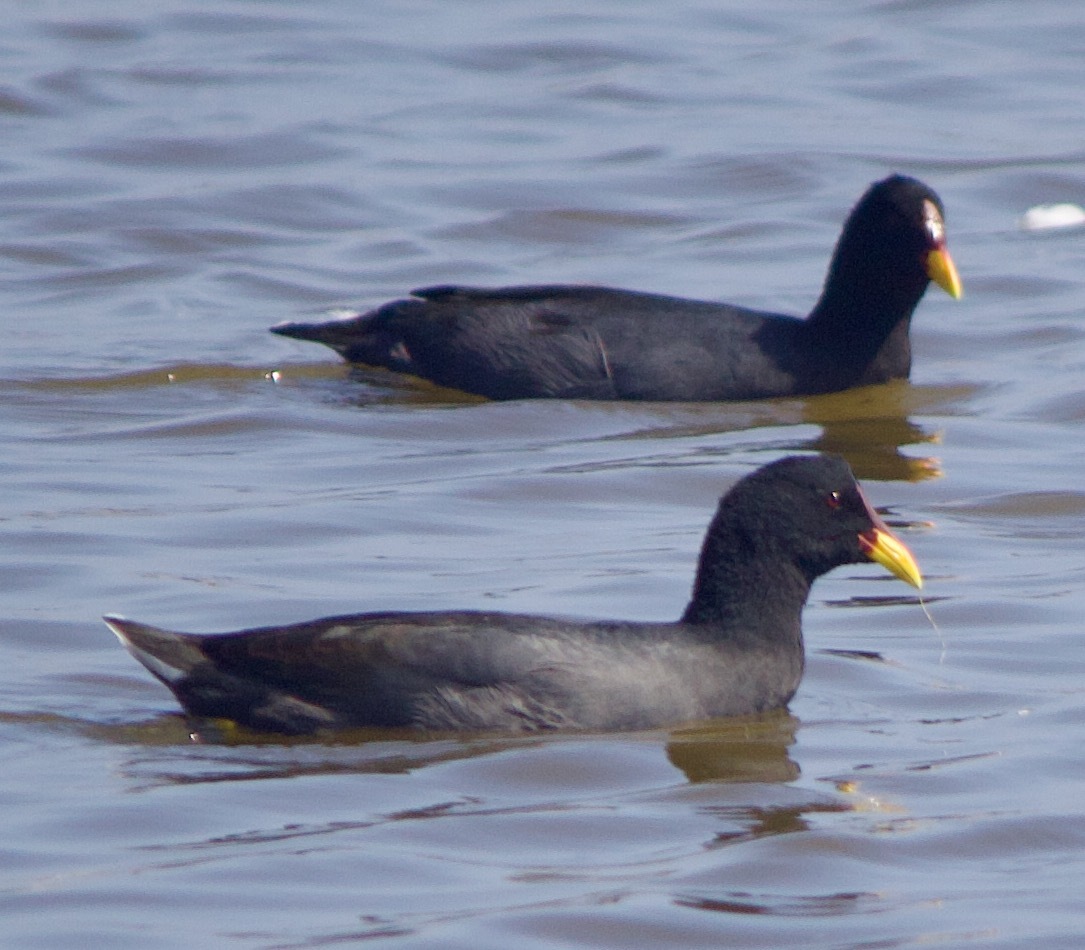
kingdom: Animalia
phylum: Chordata
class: Aves
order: Gruiformes
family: Rallidae
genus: Fulica
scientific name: Fulica rufifrons
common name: Red-fronted coot
